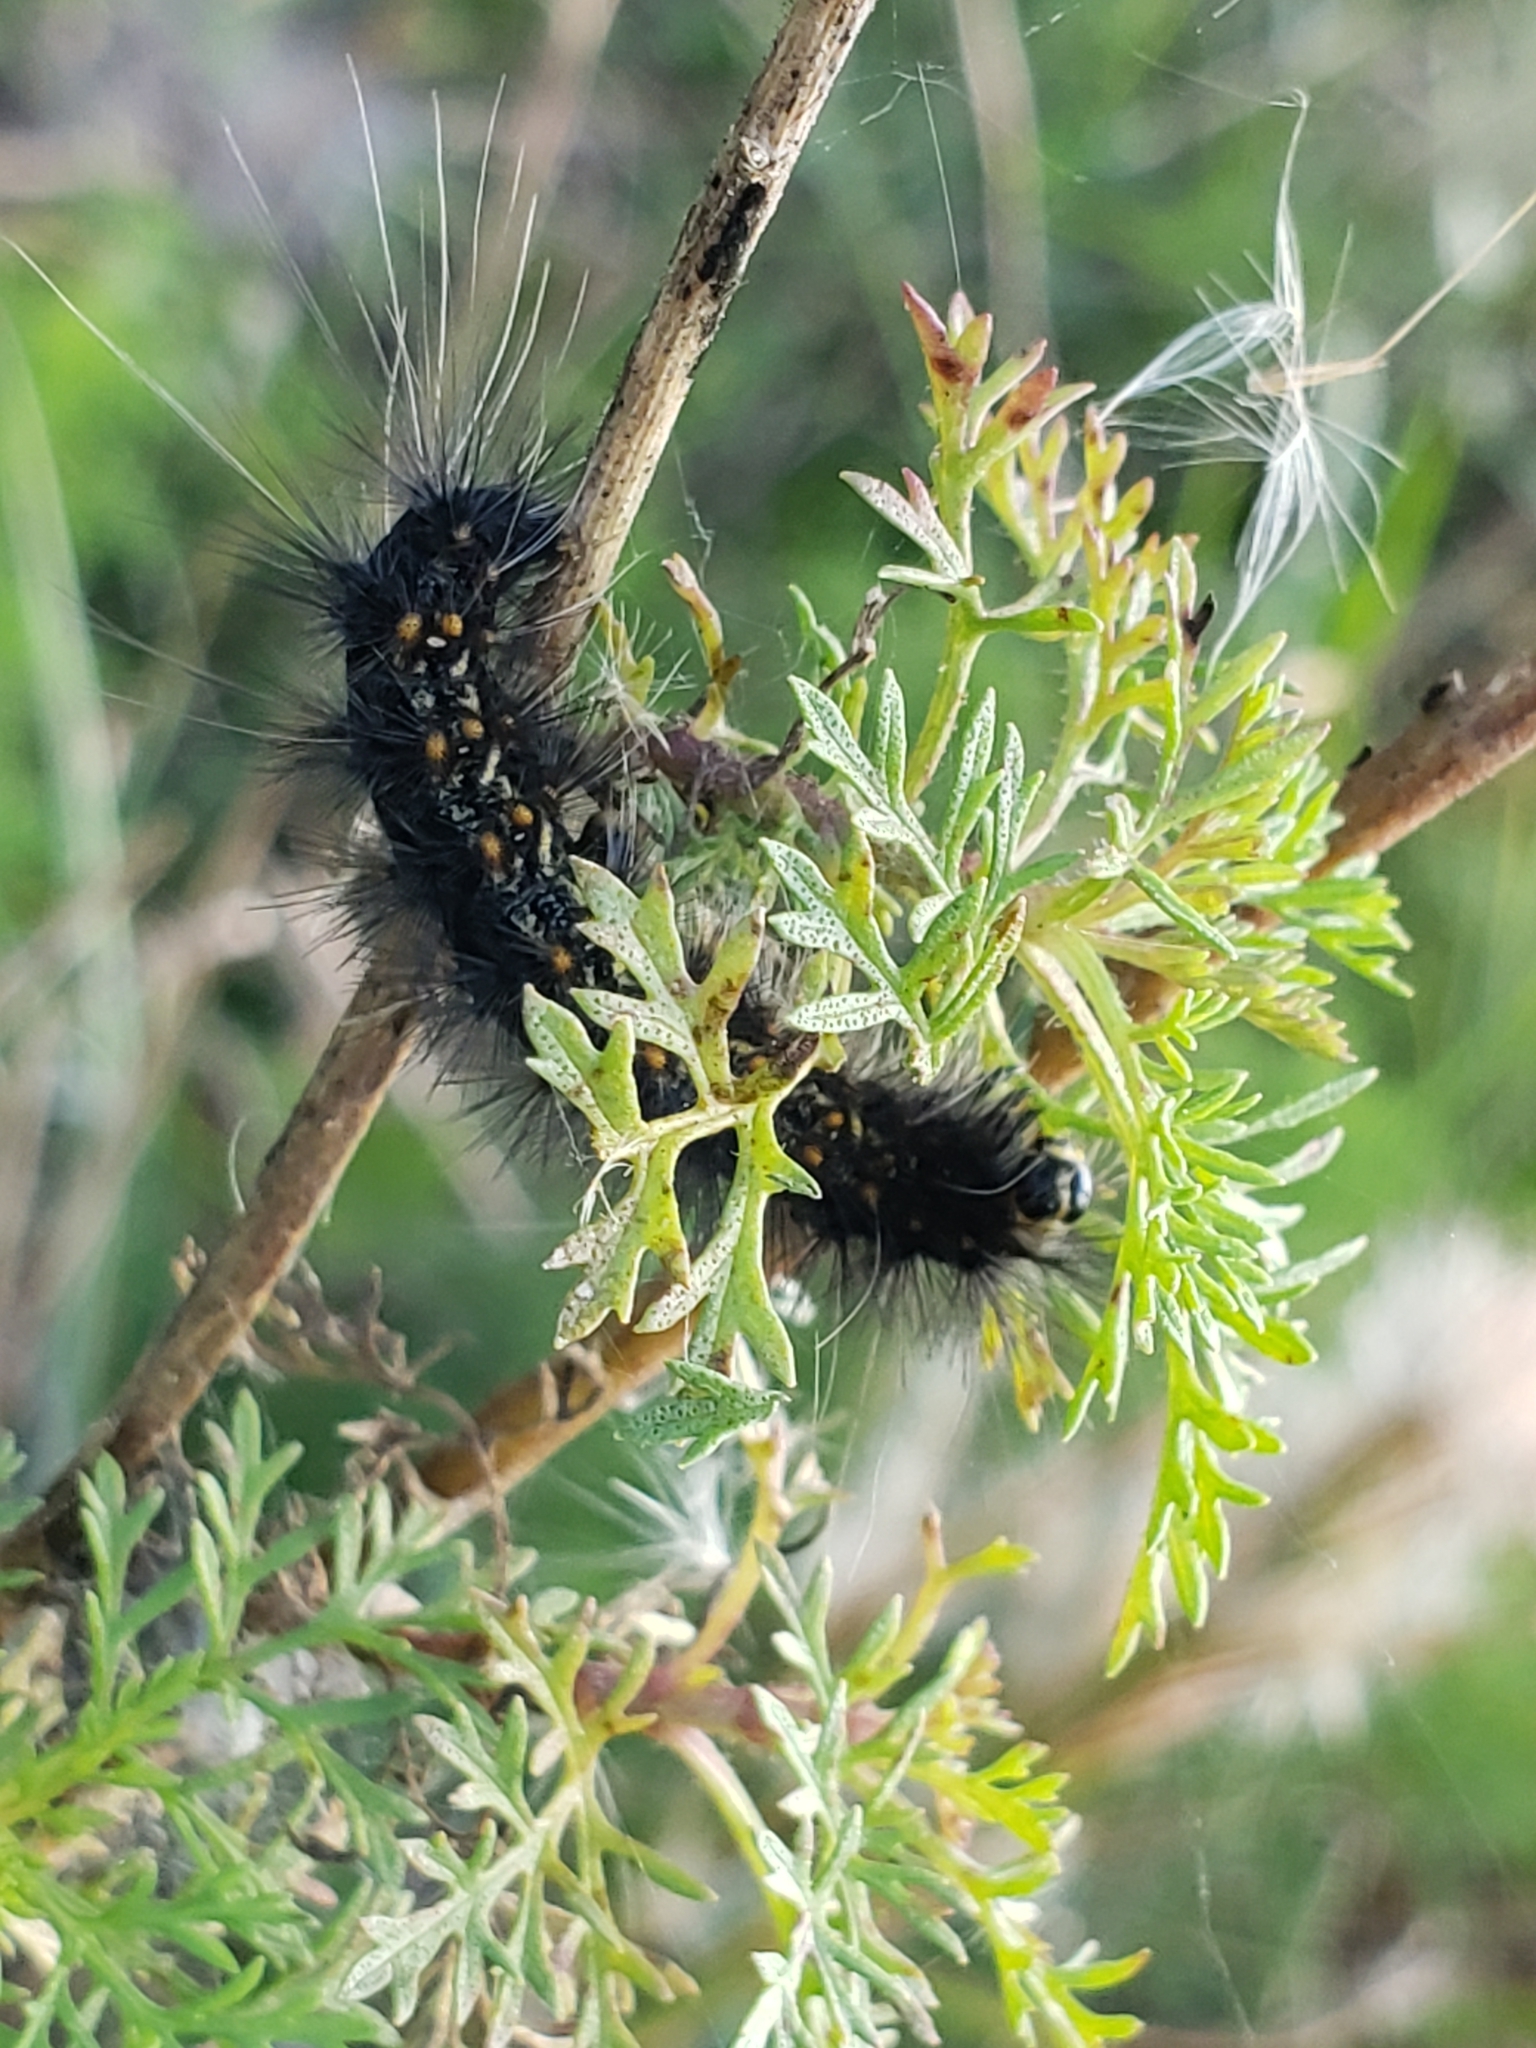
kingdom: Animalia
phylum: Arthropoda
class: Insecta
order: Lepidoptera
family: Erebidae
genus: Estigmene
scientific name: Estigmene acrea
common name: Salt marsh moth
